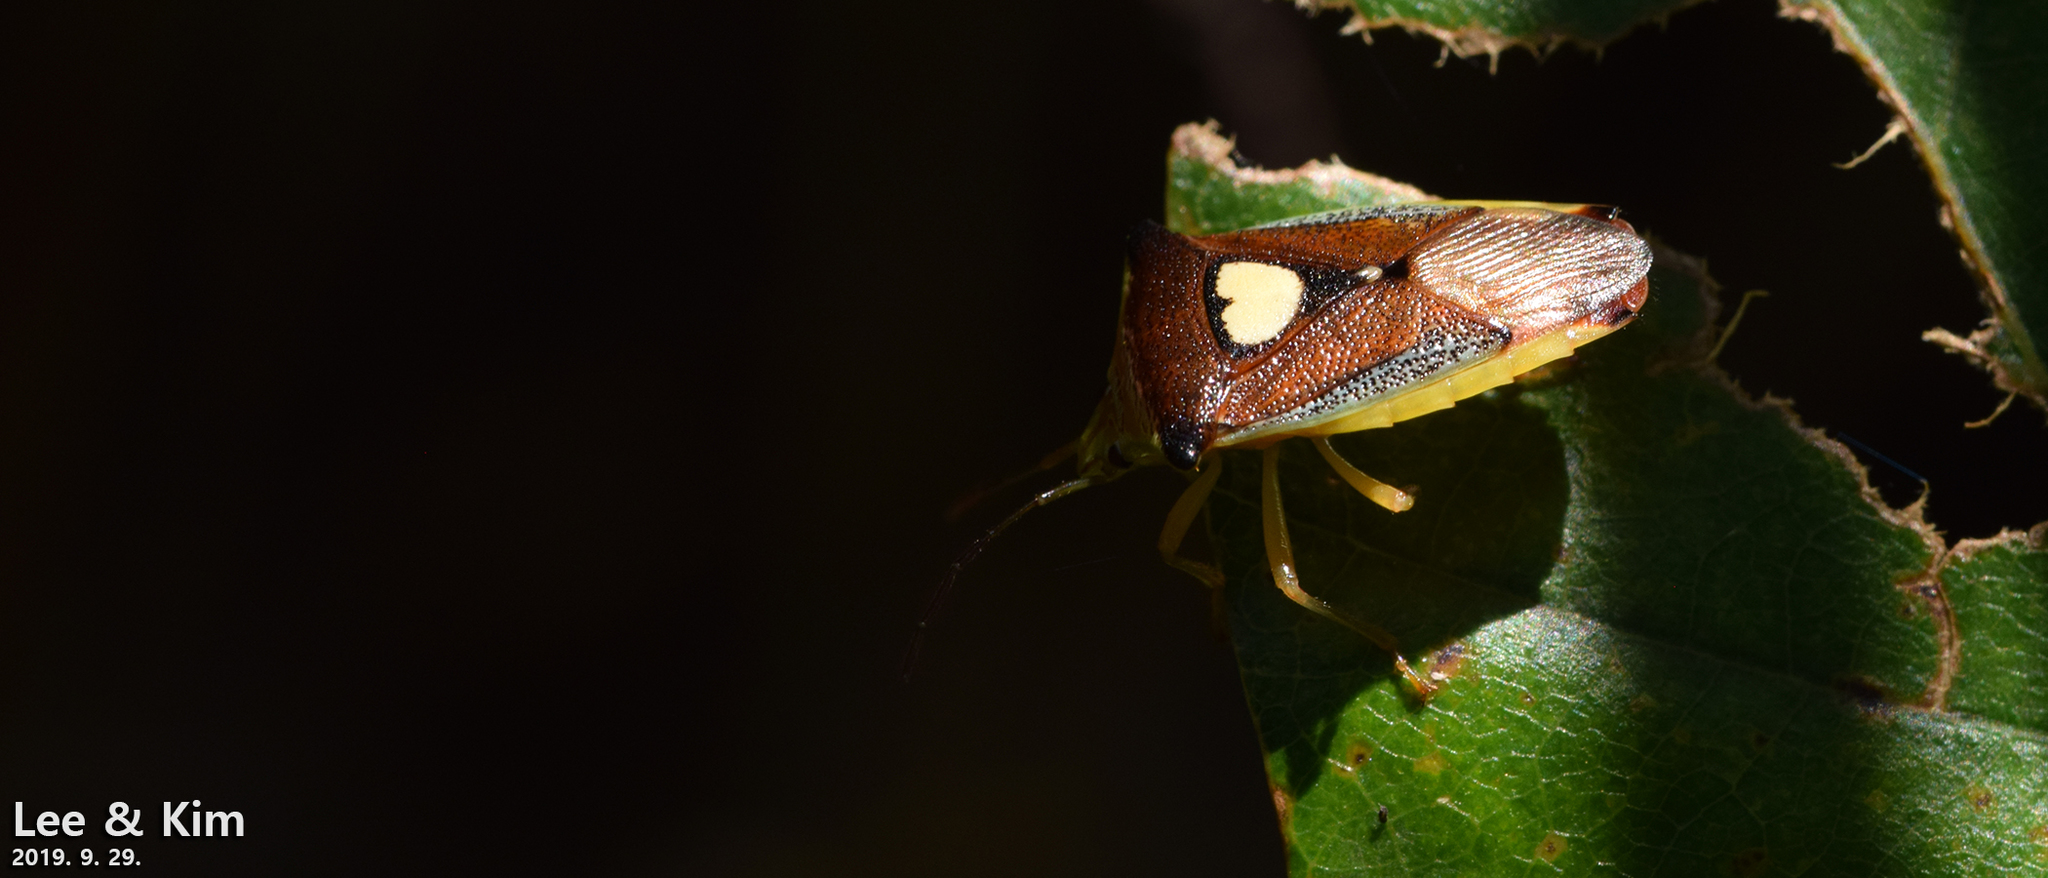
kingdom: Animalia
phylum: Arthropoda
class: Insecta
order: Hemiptera
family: Acanthosomatidae
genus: Sastragala
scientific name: Sastragala esakii
